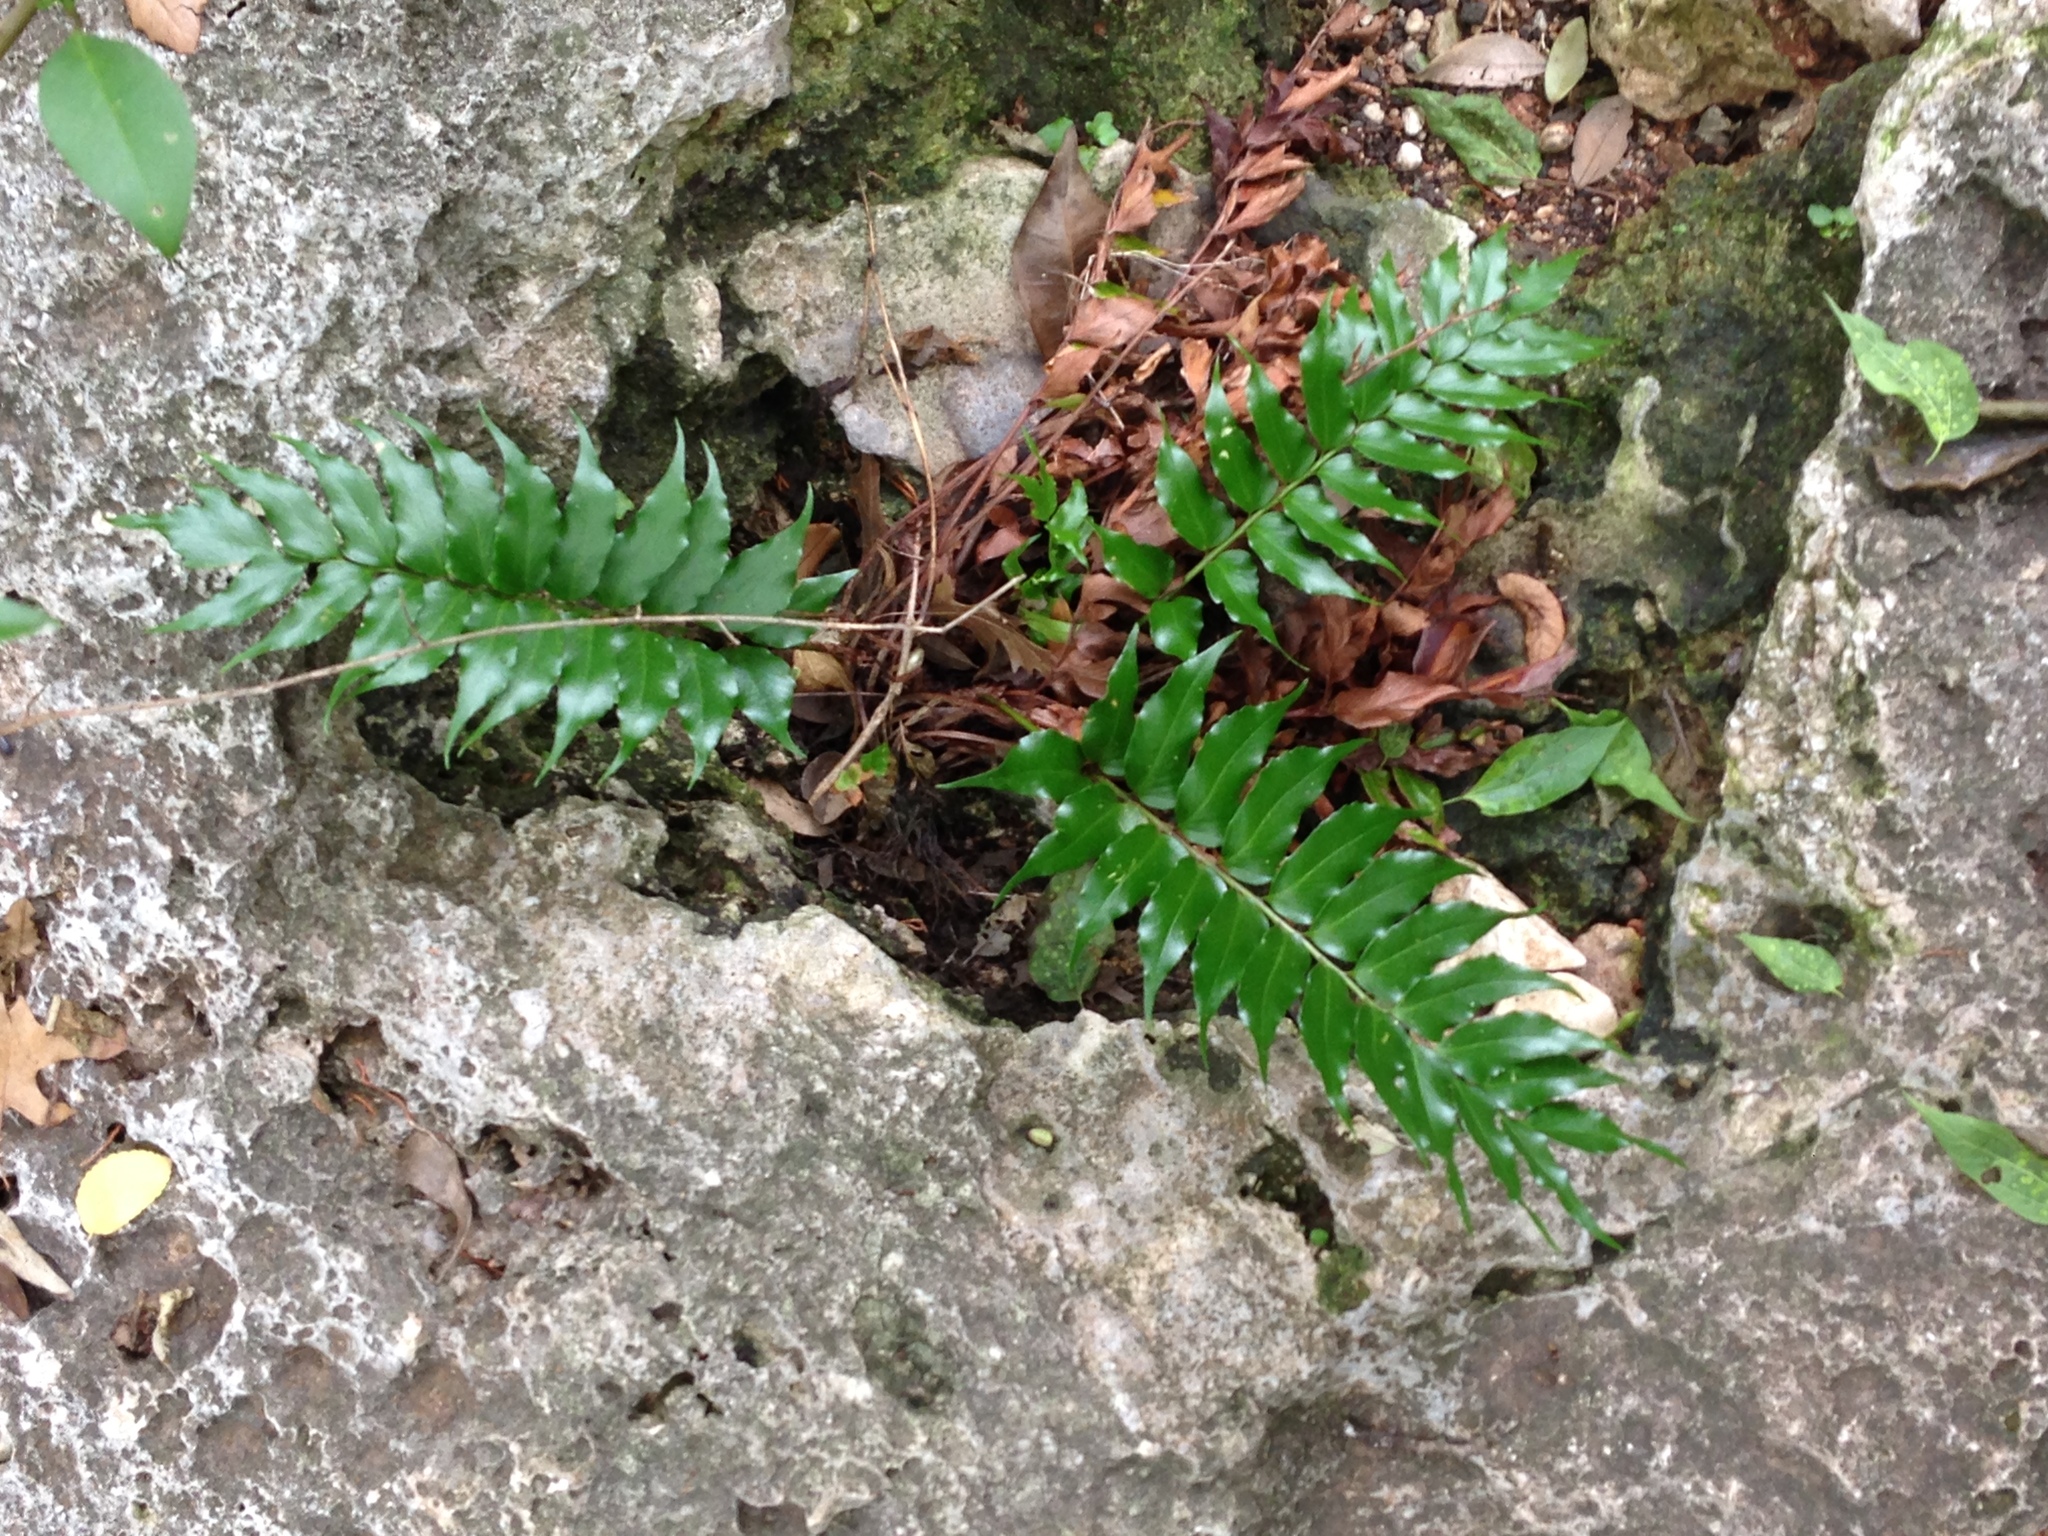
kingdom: Plantae
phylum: Tracheophyta
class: Polypodiopsida
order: Polypodiales
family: Dryopteridaceae
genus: Cyrtomium
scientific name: Cyrtomium falcatum
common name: House holly-fern
